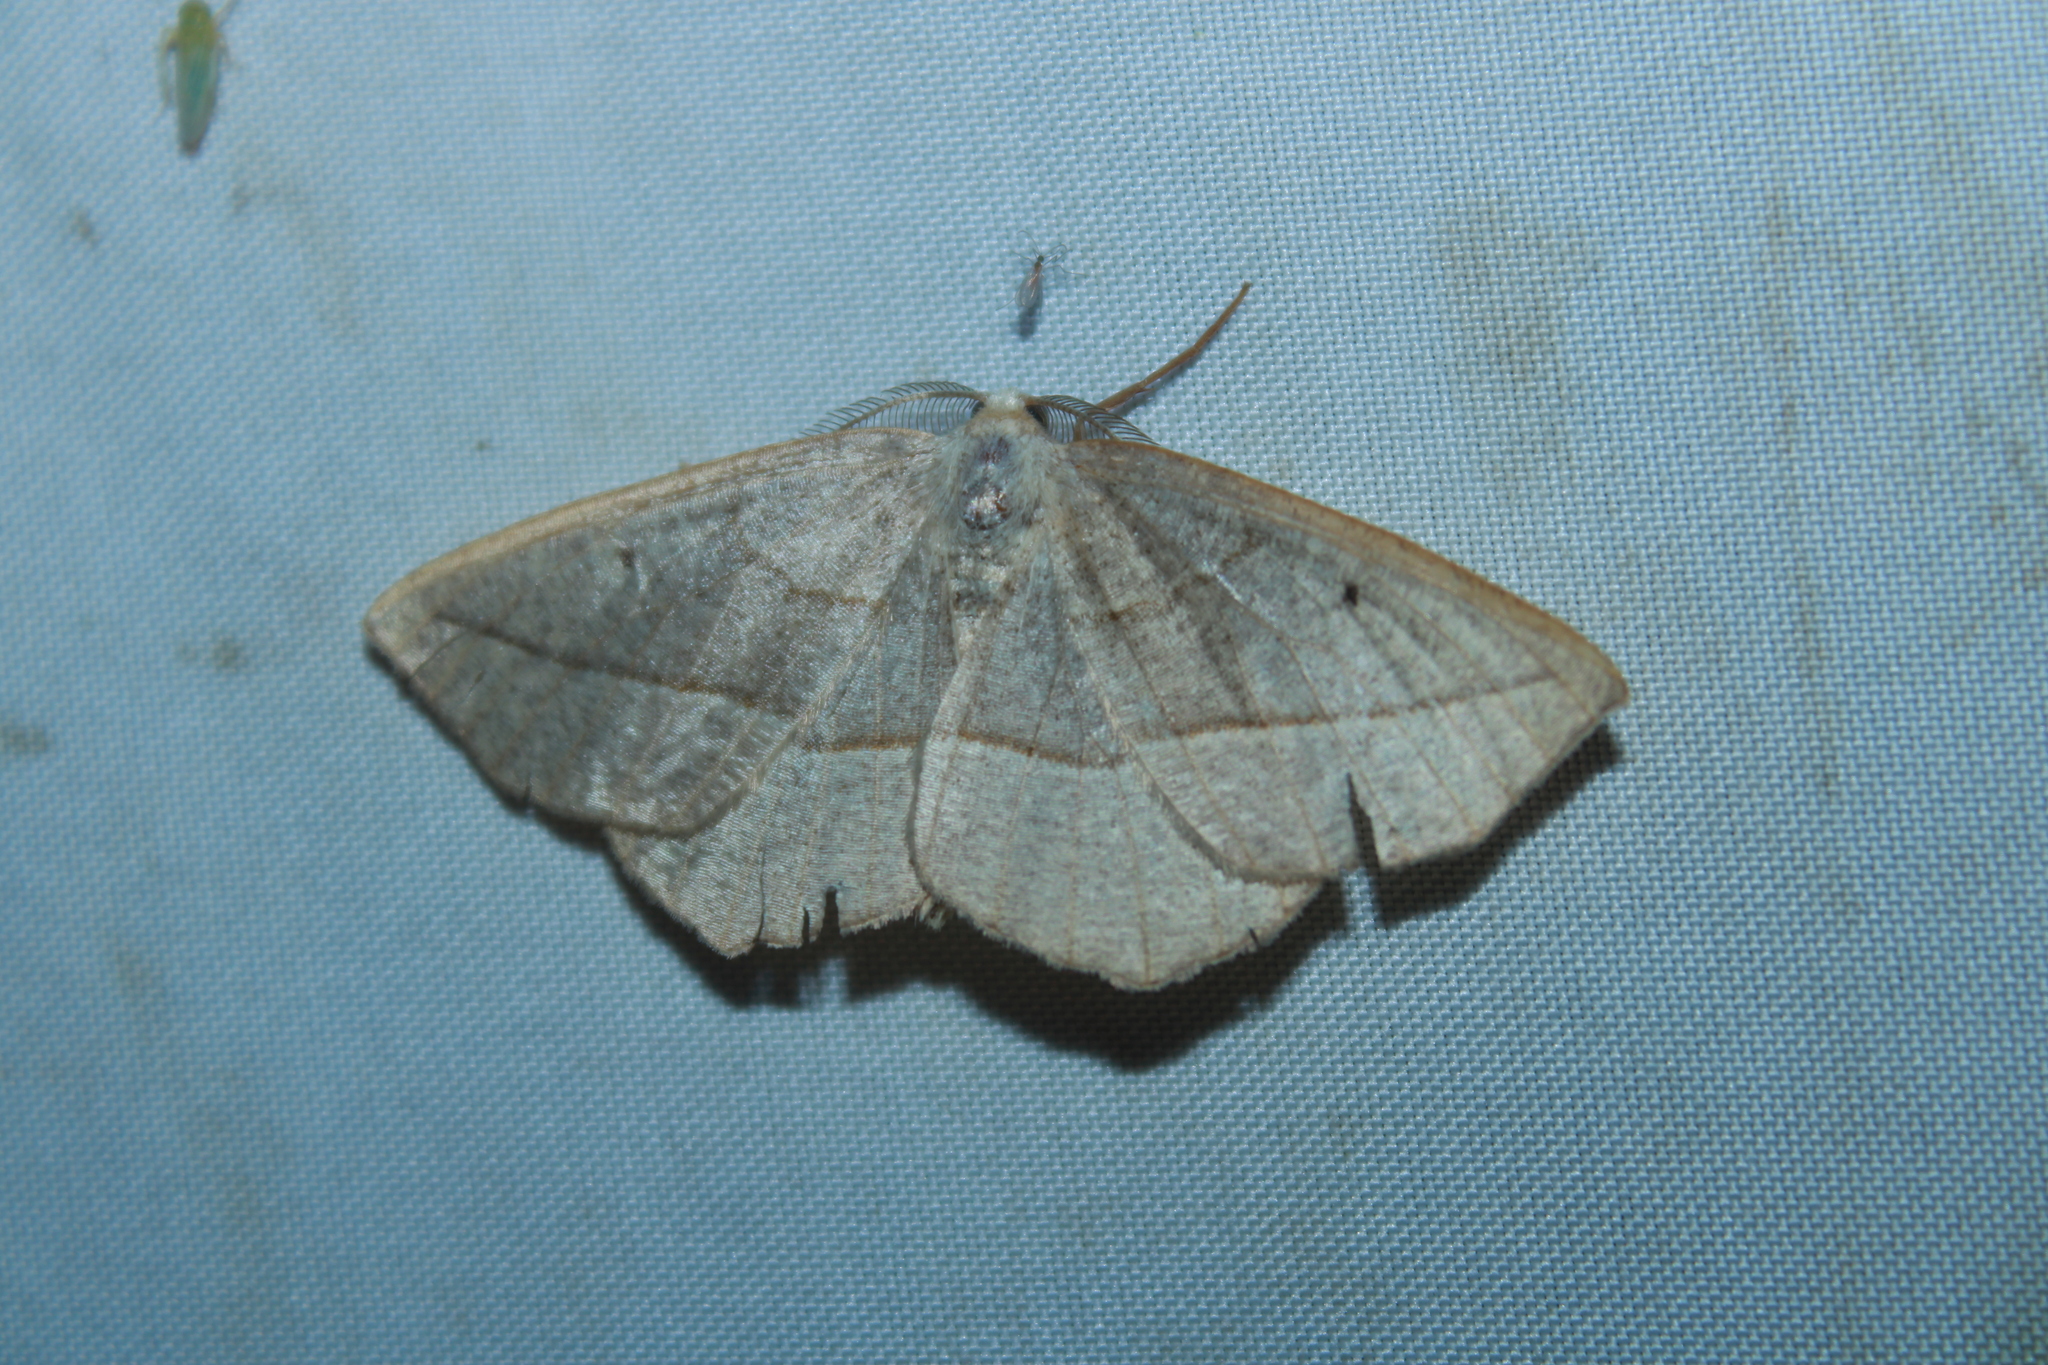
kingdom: Animalia
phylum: Arthropoda
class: Insecta
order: Lepidoptera
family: Geometridae
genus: Eusarca
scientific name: Eusarca confusaria
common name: Confused eusarca
